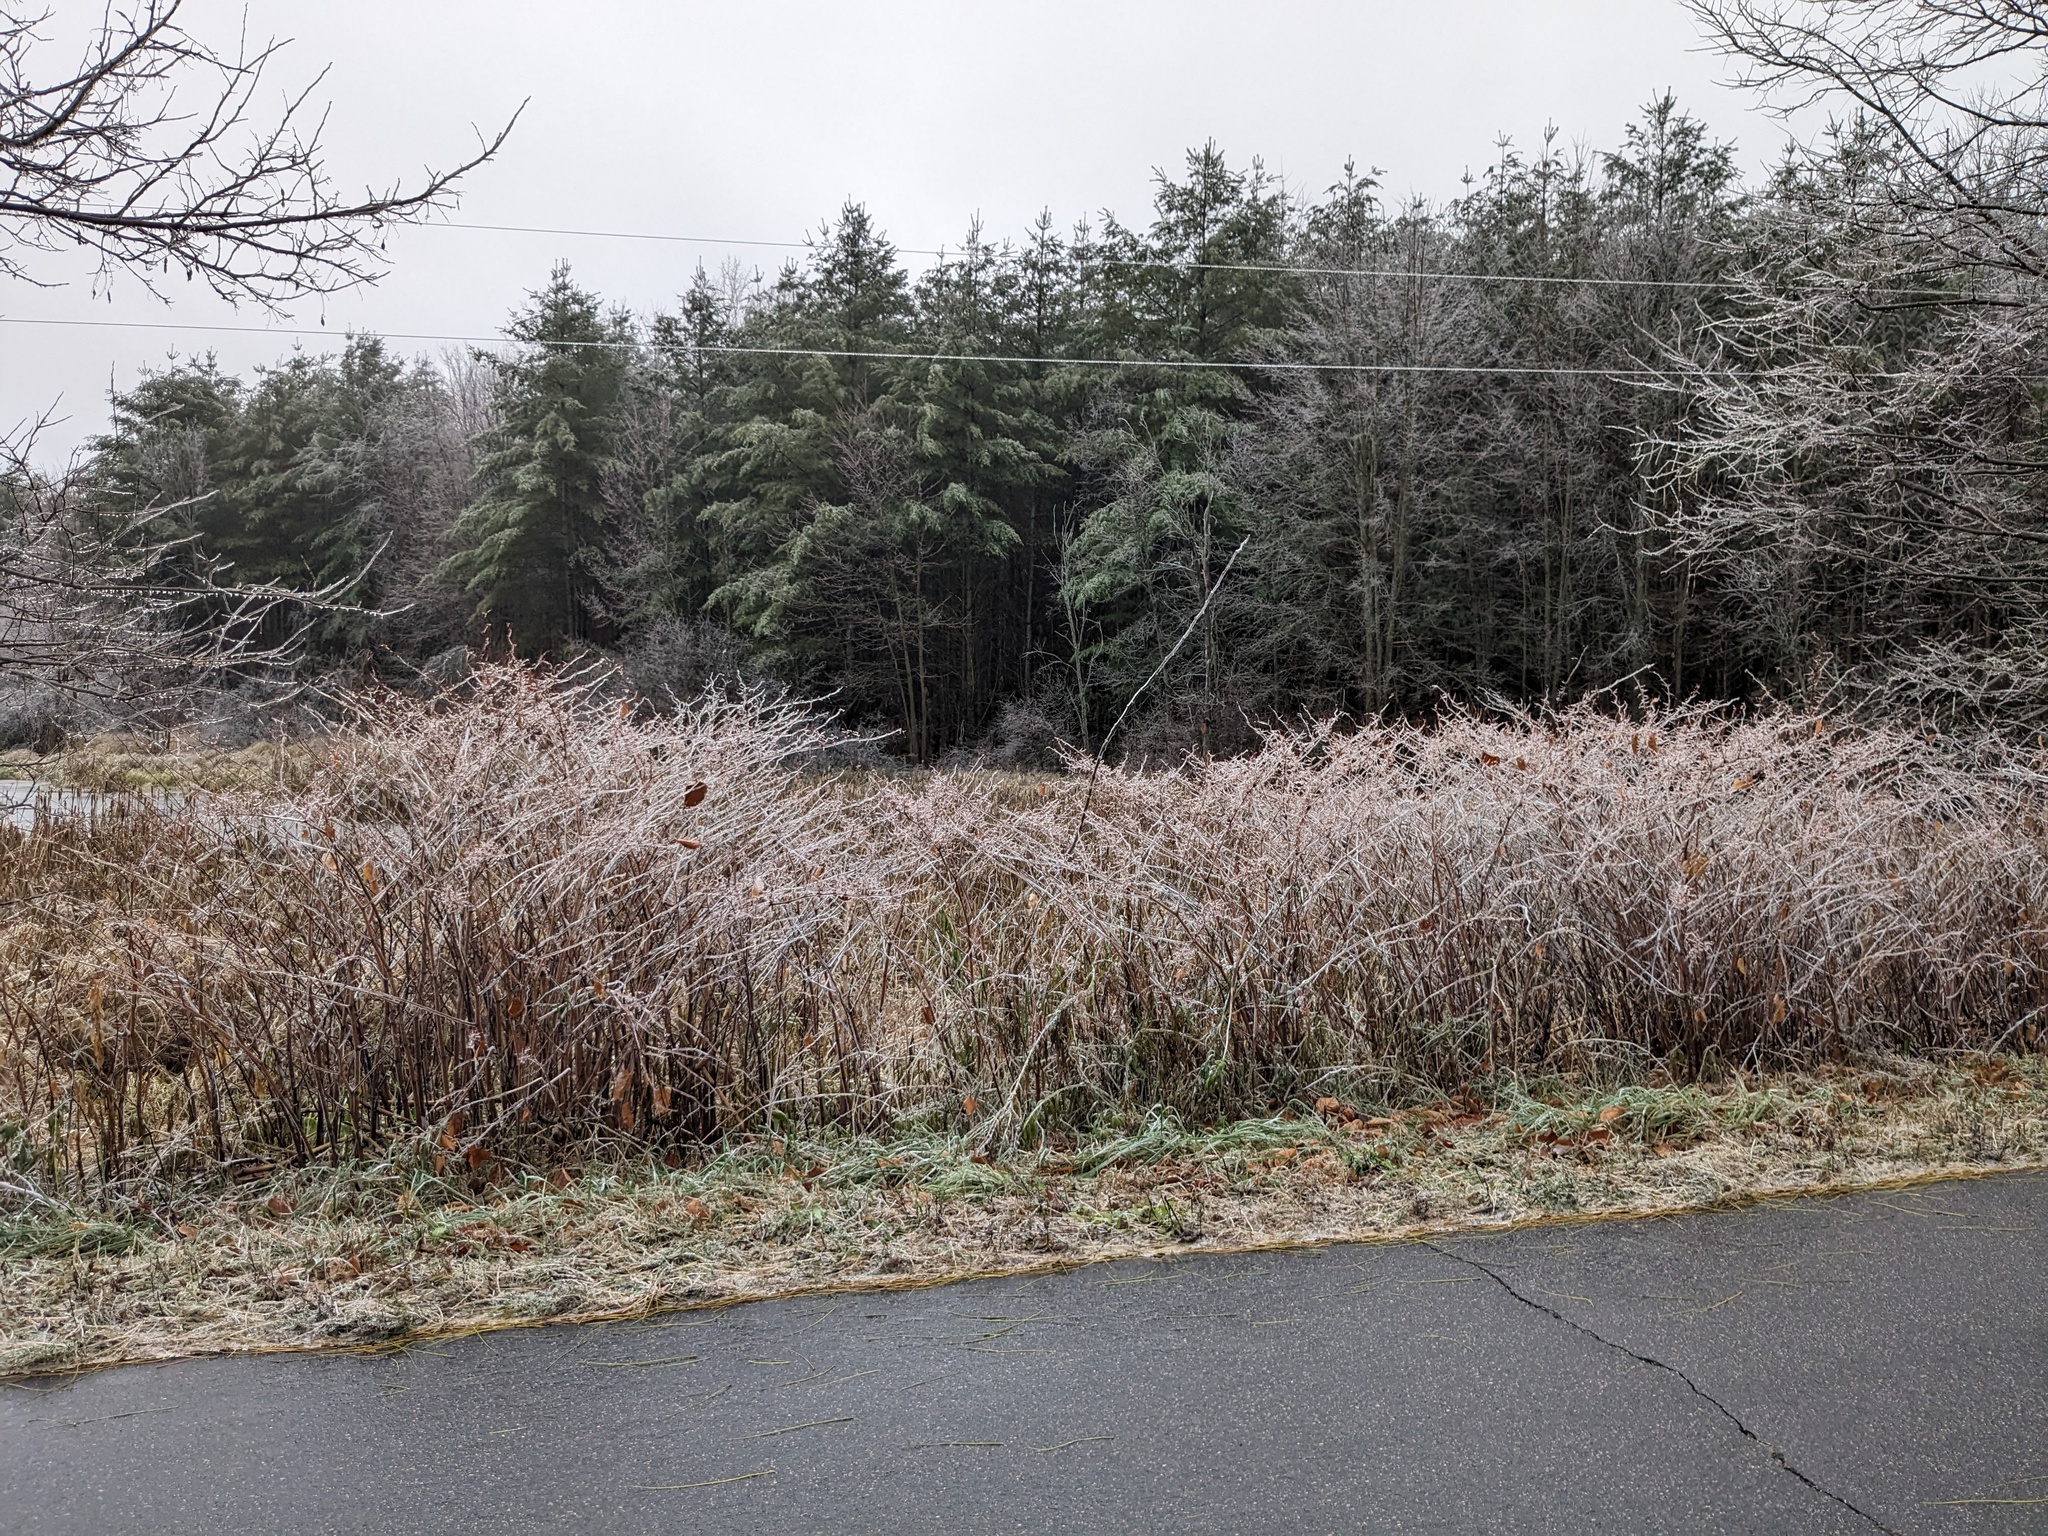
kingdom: Plantae
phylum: Tracheophyta
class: Magnoliopsida
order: Caryophyllales
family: Polygonaceae
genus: Reynoutria
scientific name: Reynoutria japonica
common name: Japanese knotweed
